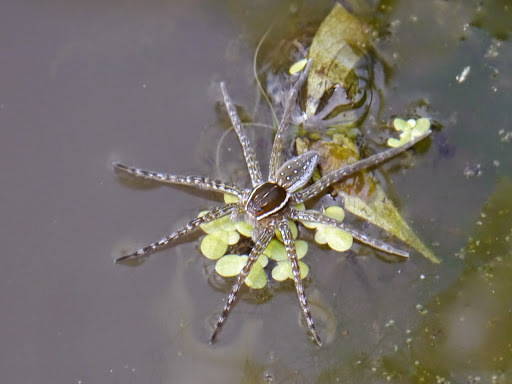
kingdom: Animalia
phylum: Arthropoda
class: Arachnida
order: Araneae
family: Pisauridae
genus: Dolomedes
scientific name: Dolomedes triton
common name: Six-spotted fishing spider
